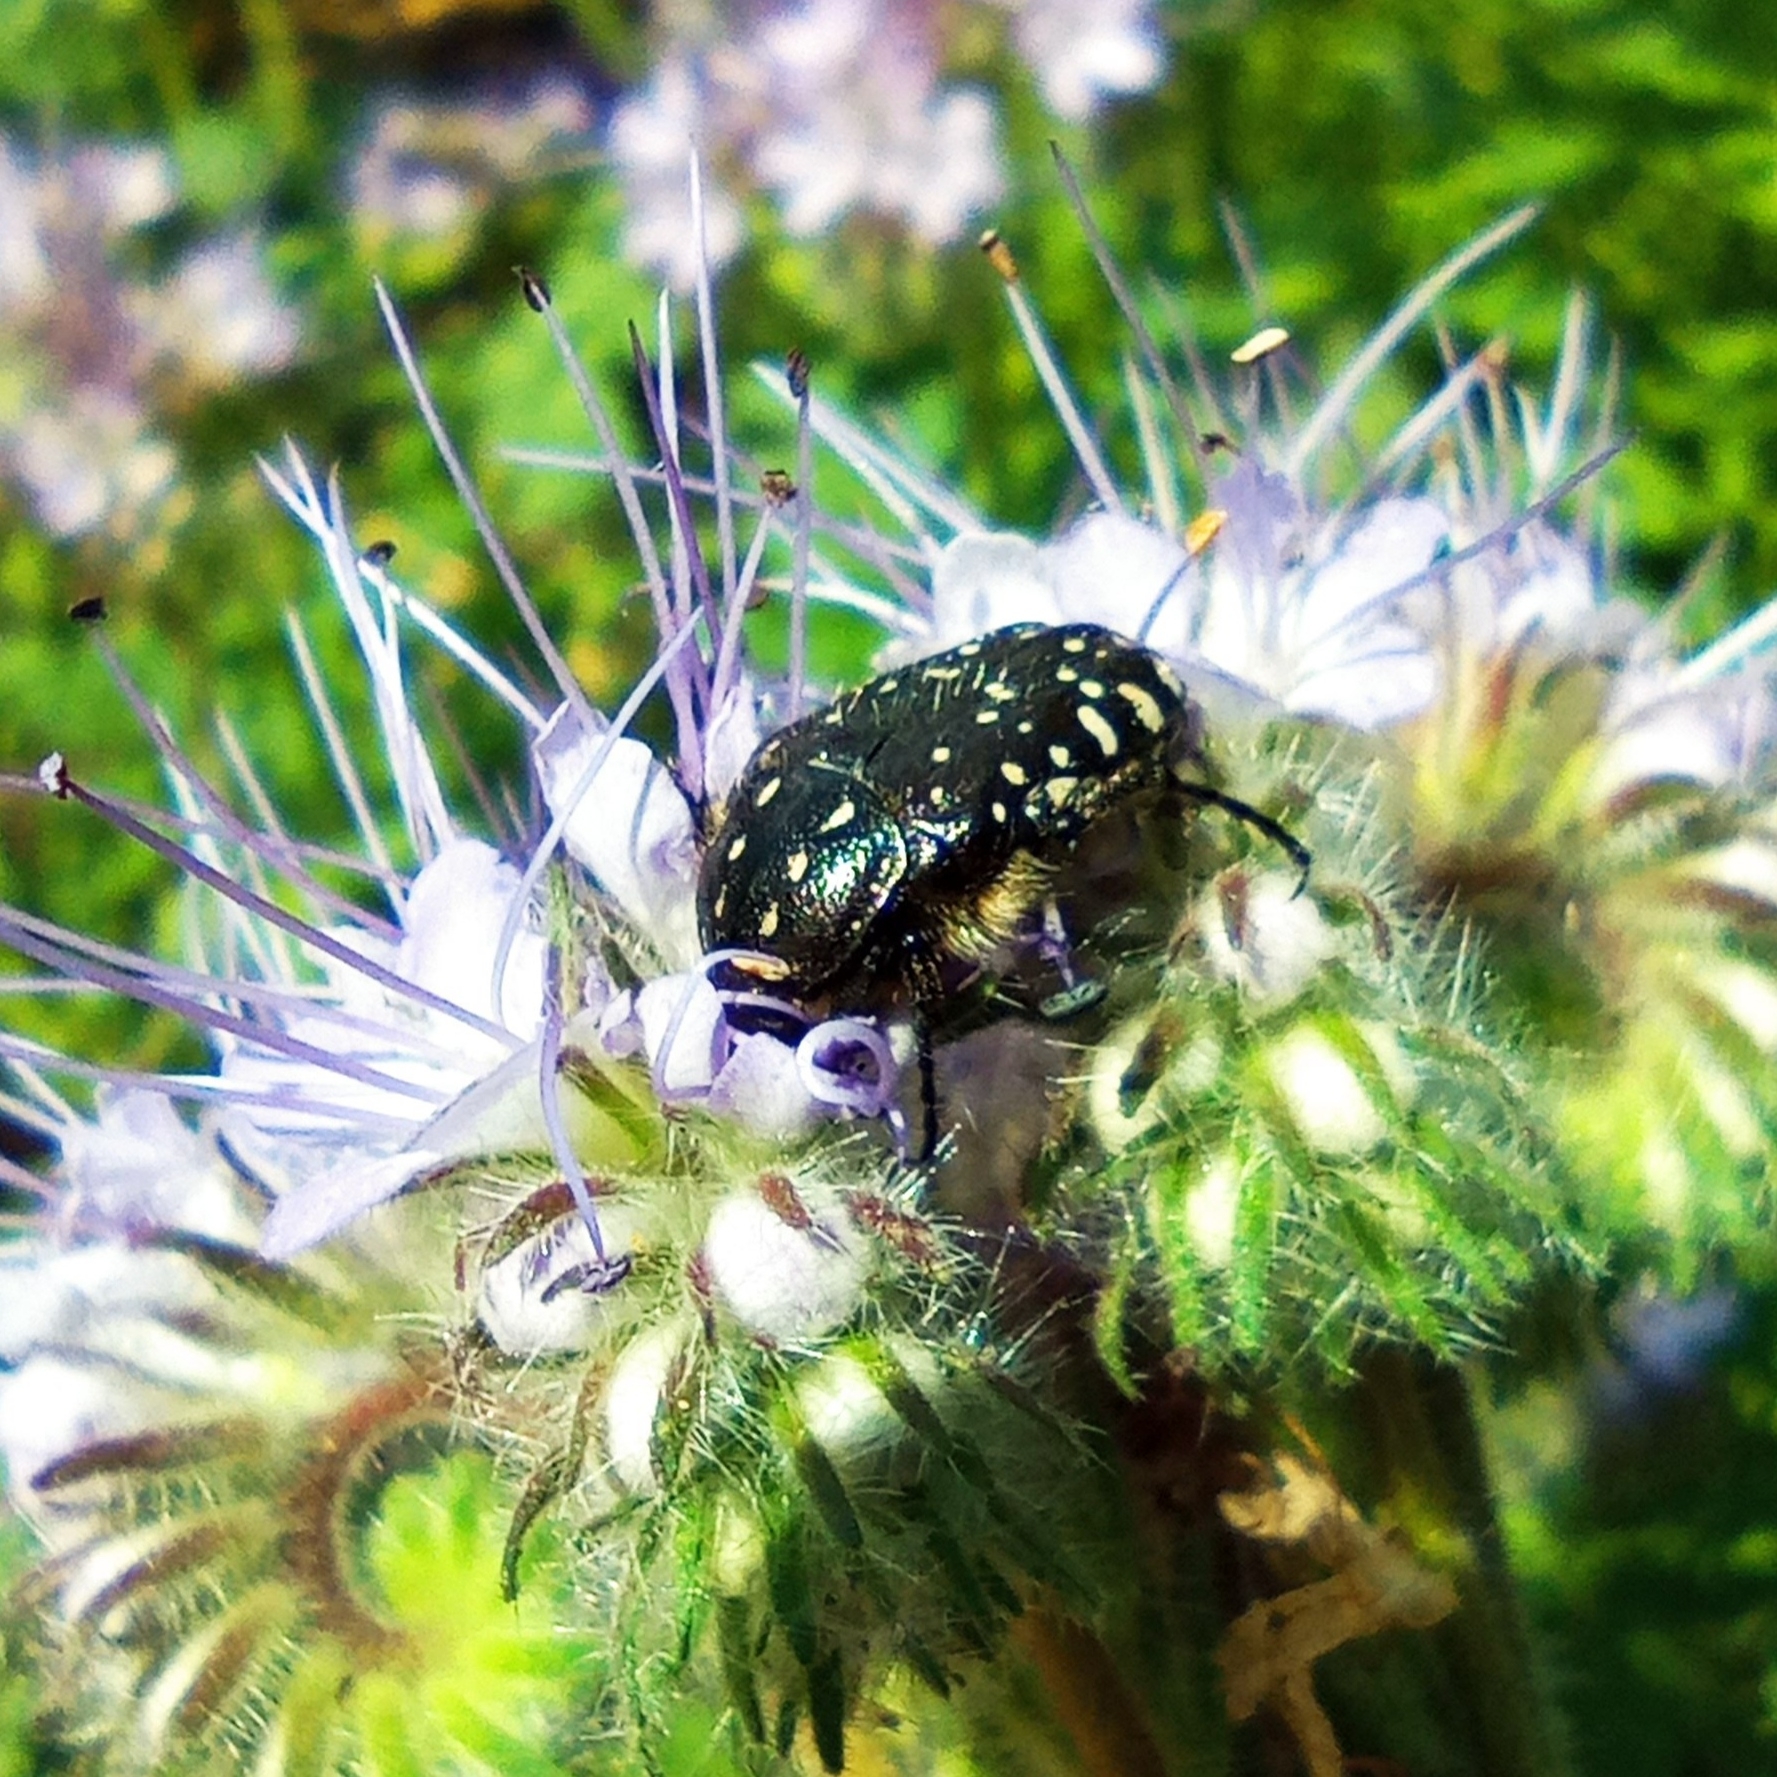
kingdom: Animalia
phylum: Arthropoda
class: Insecta
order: Coleoptera
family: Scarabaeidae
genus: Oxythyrea
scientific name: Oxythyrea funesta
